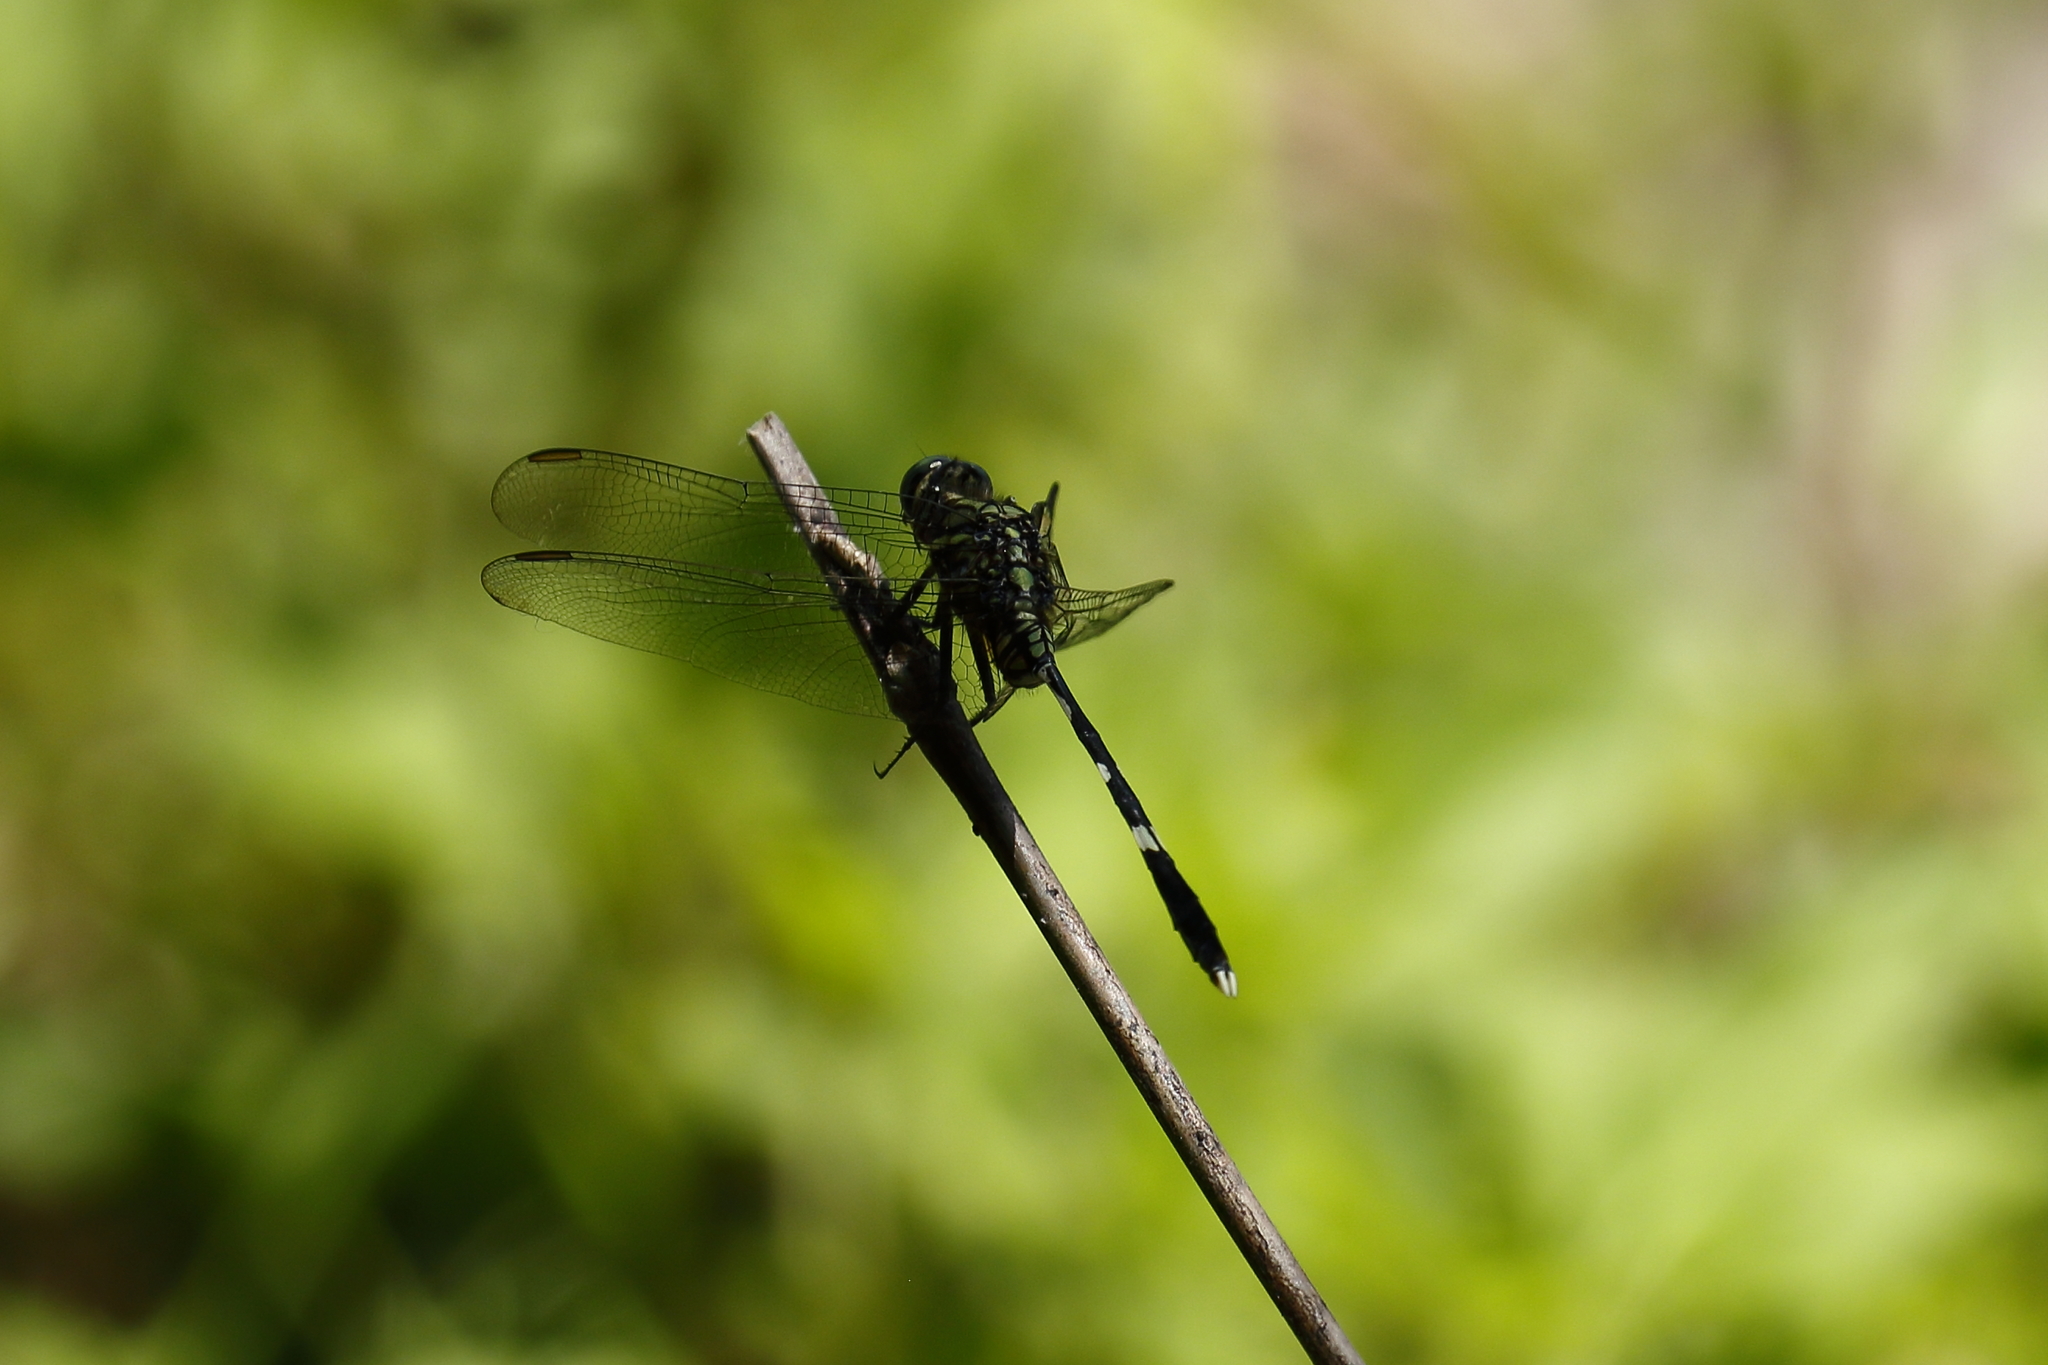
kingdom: Animalia
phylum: Arthropoda
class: Insecta
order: Odonata
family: Libellulidae
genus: Orthetrum
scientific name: Orthetrum sabina
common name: Slender skimmer
